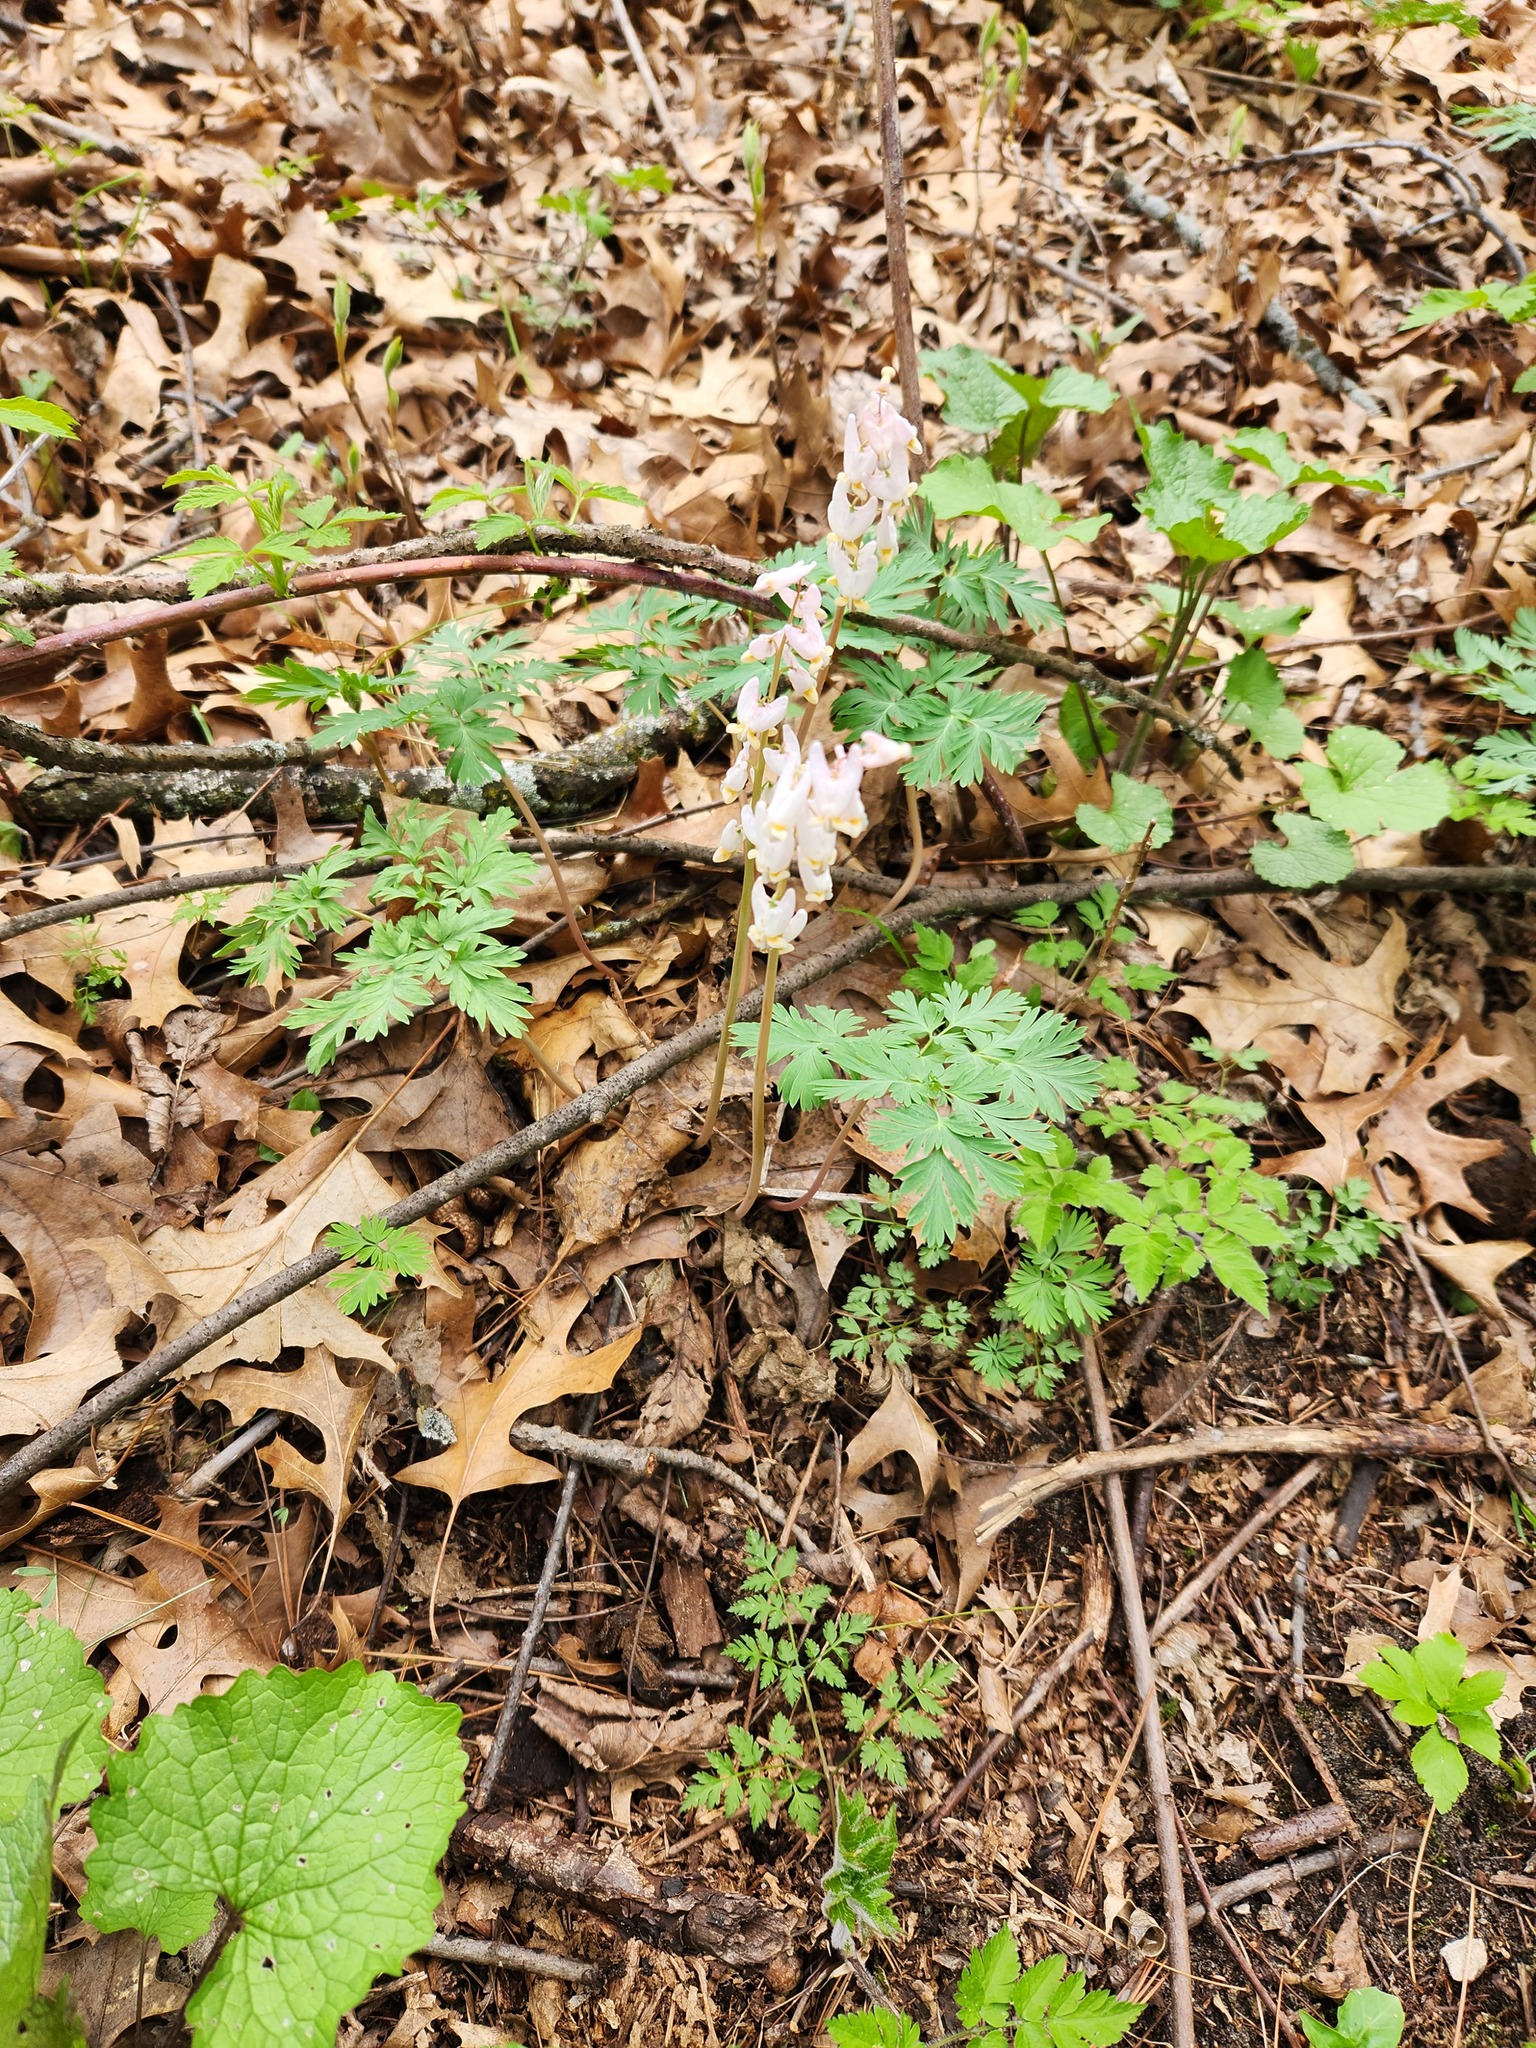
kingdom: Plantae
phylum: Tracheophyta
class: Magnoliopsida
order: Ranunculales
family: Papaveraceae
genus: Dicentra
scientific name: Dicentra cucullaria
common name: Dutchman's breeches
